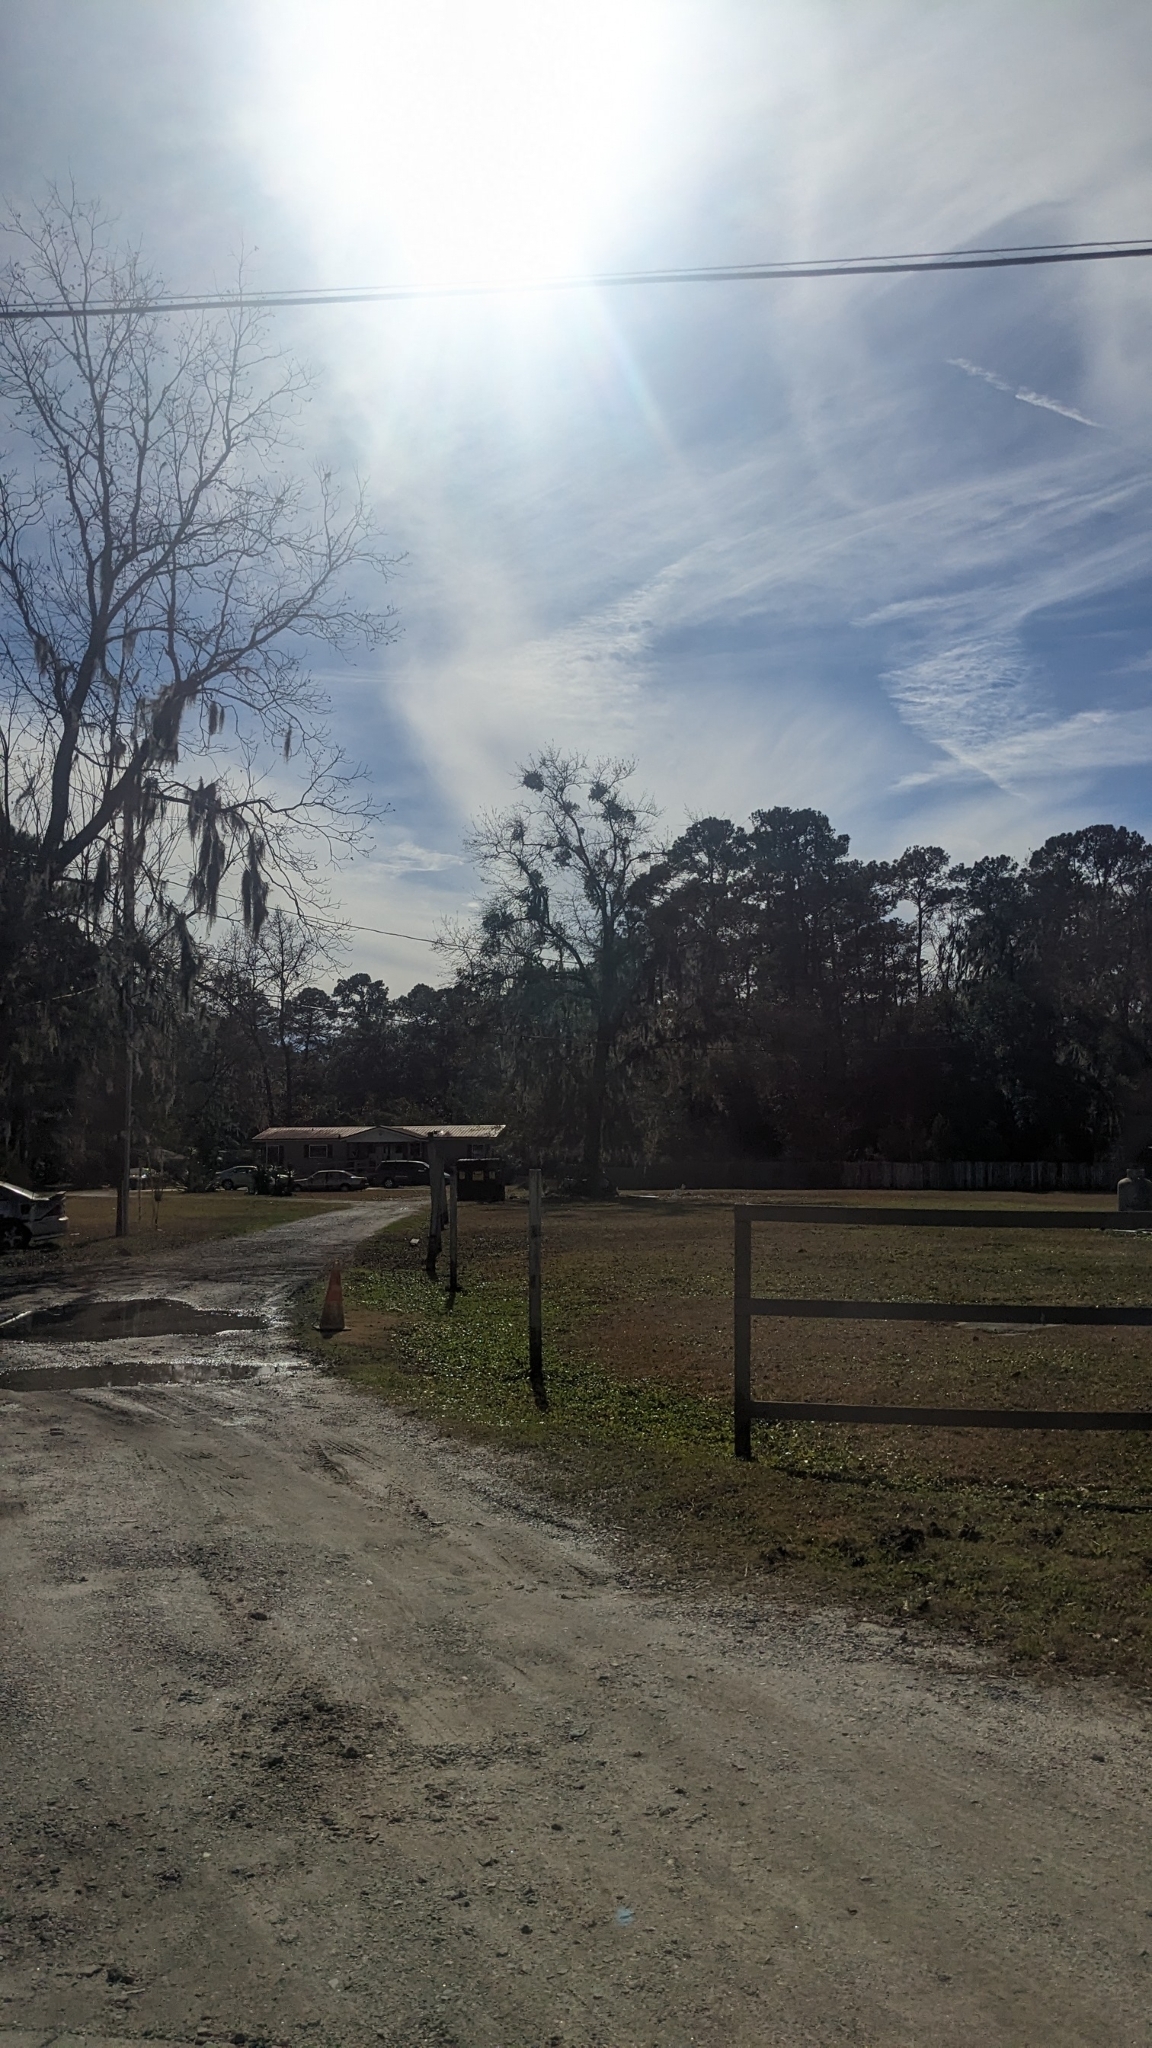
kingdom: Plantae
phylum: Tracheophyta
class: Magnoliopsida
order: Santalales
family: Viscaceae
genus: Phoradendron
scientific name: Phoradendron leucarpum
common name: Pacific mistletoe
